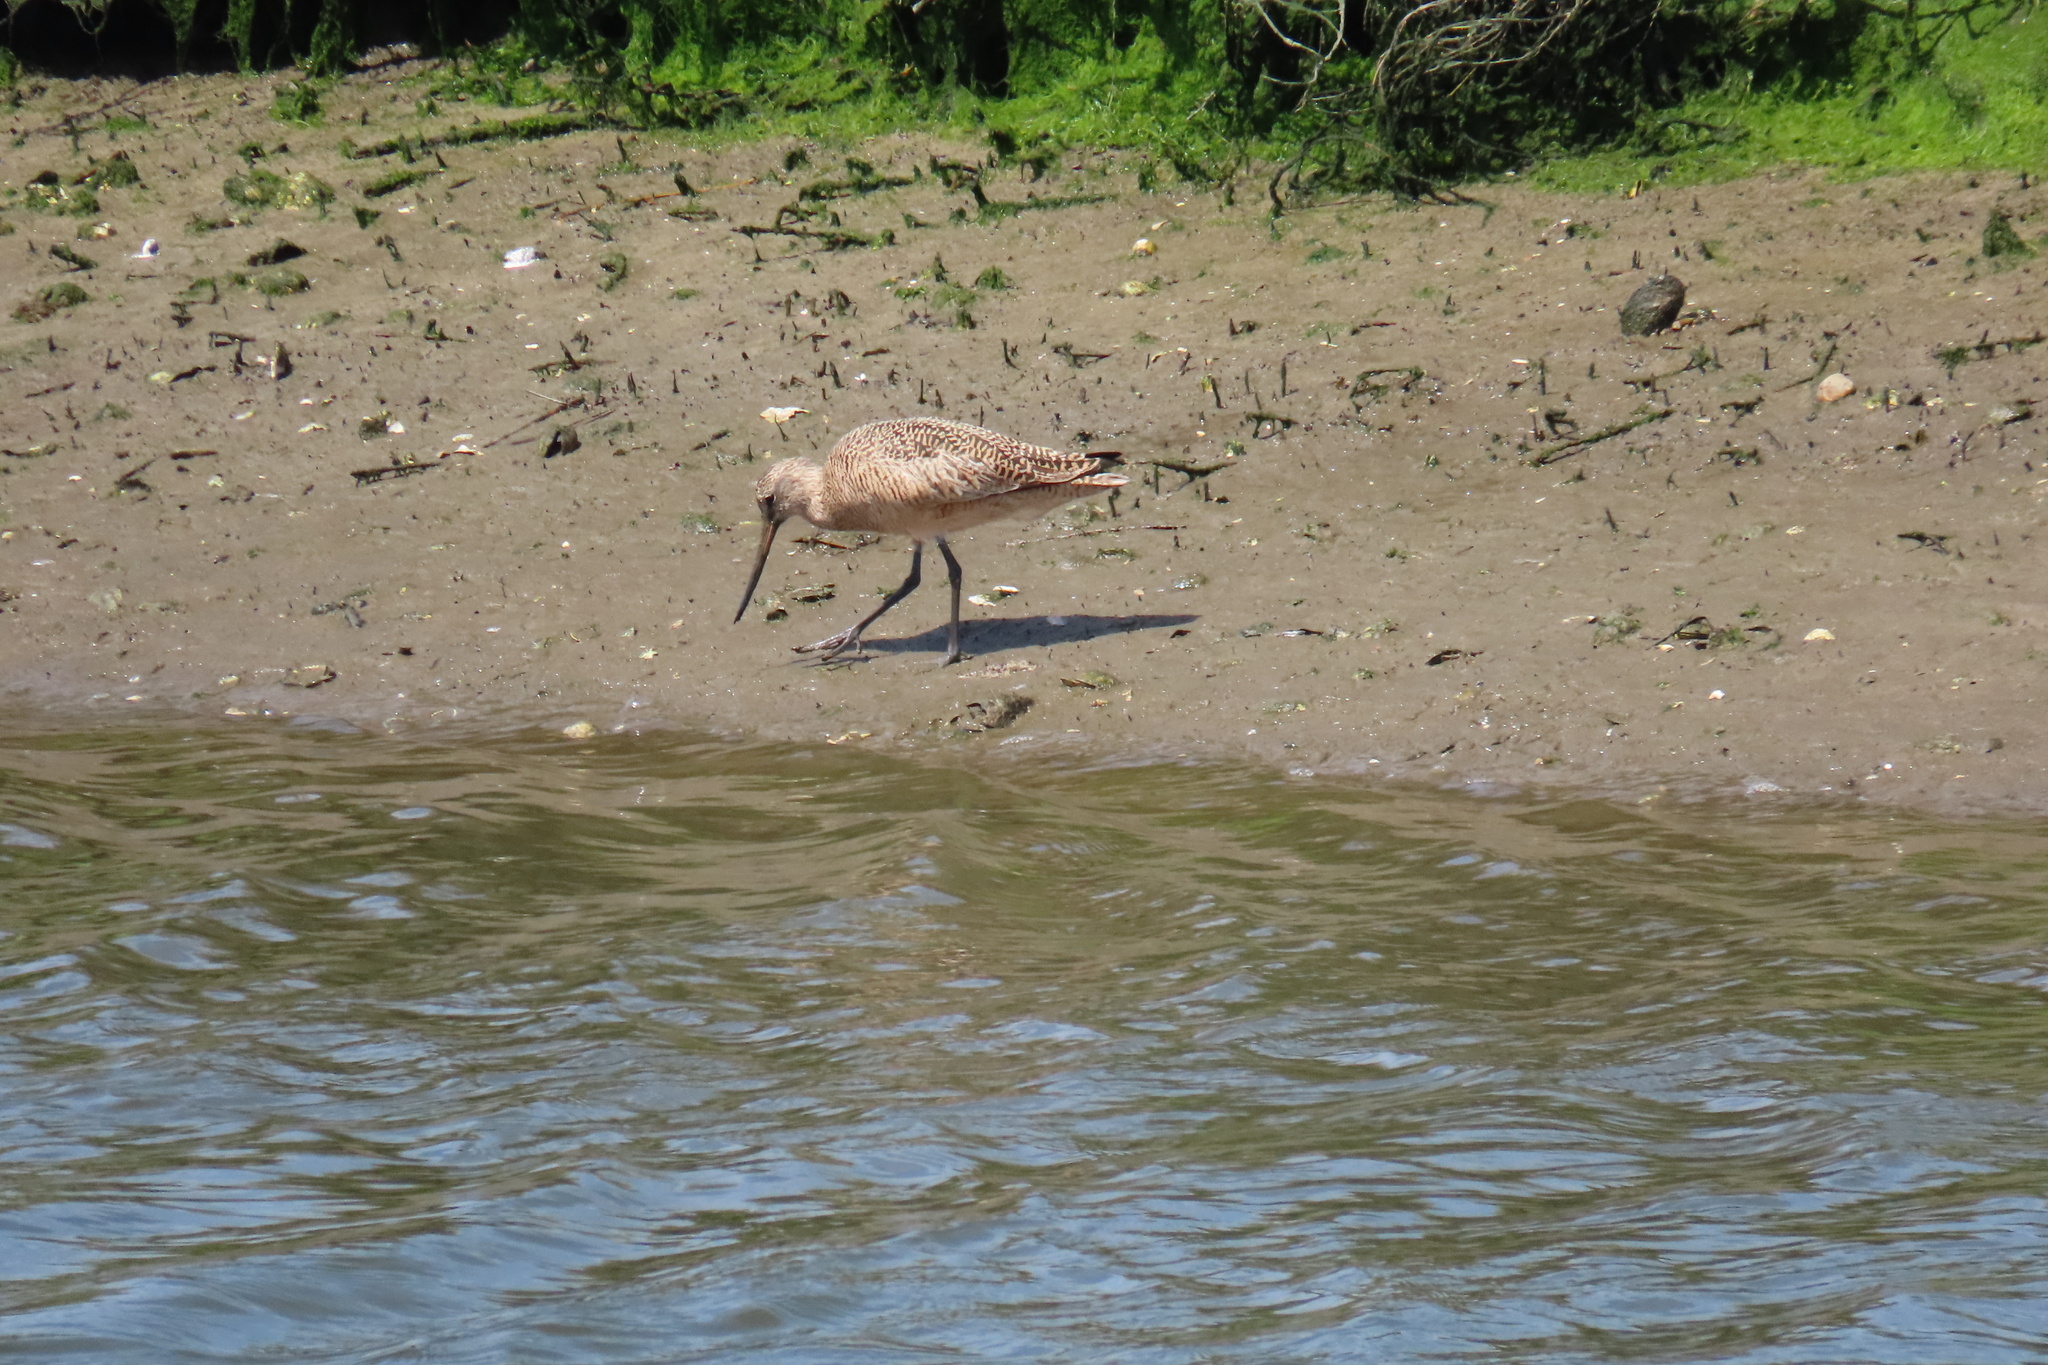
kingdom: Animalia
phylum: Chordata
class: Aves
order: Charadriiformes
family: Scolopacidae
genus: Limosa
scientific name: Limosa fedoa
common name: Marbled godwit
